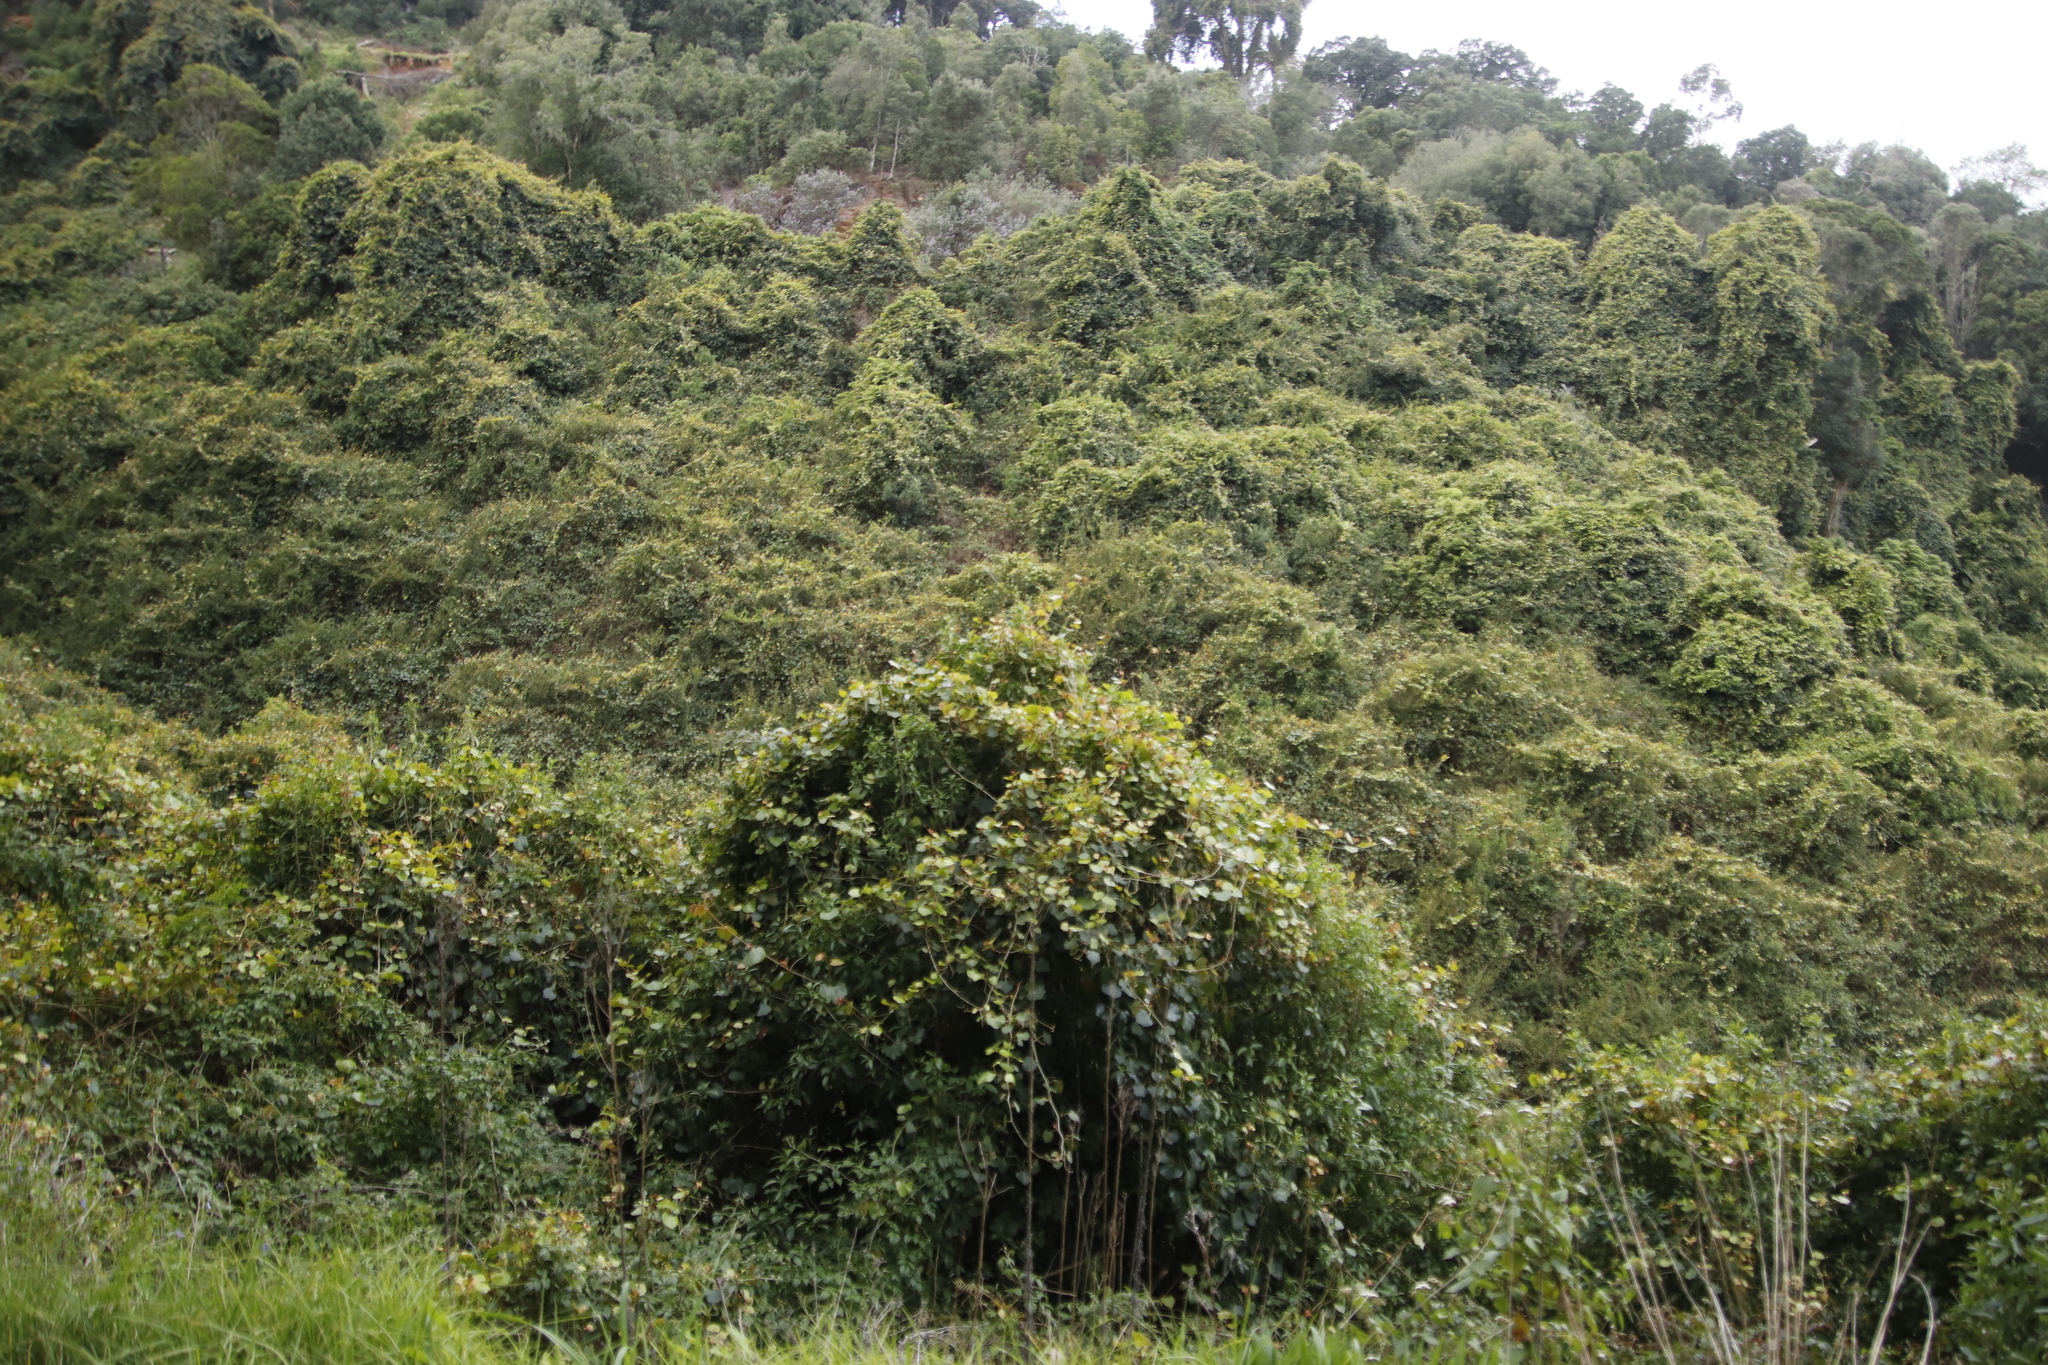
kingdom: Plantae
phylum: Tracheophyta
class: Magnoliopsida
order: Vitales
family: Vitaceae
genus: Rhoicissus
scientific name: Rhoicissus tomentosa
